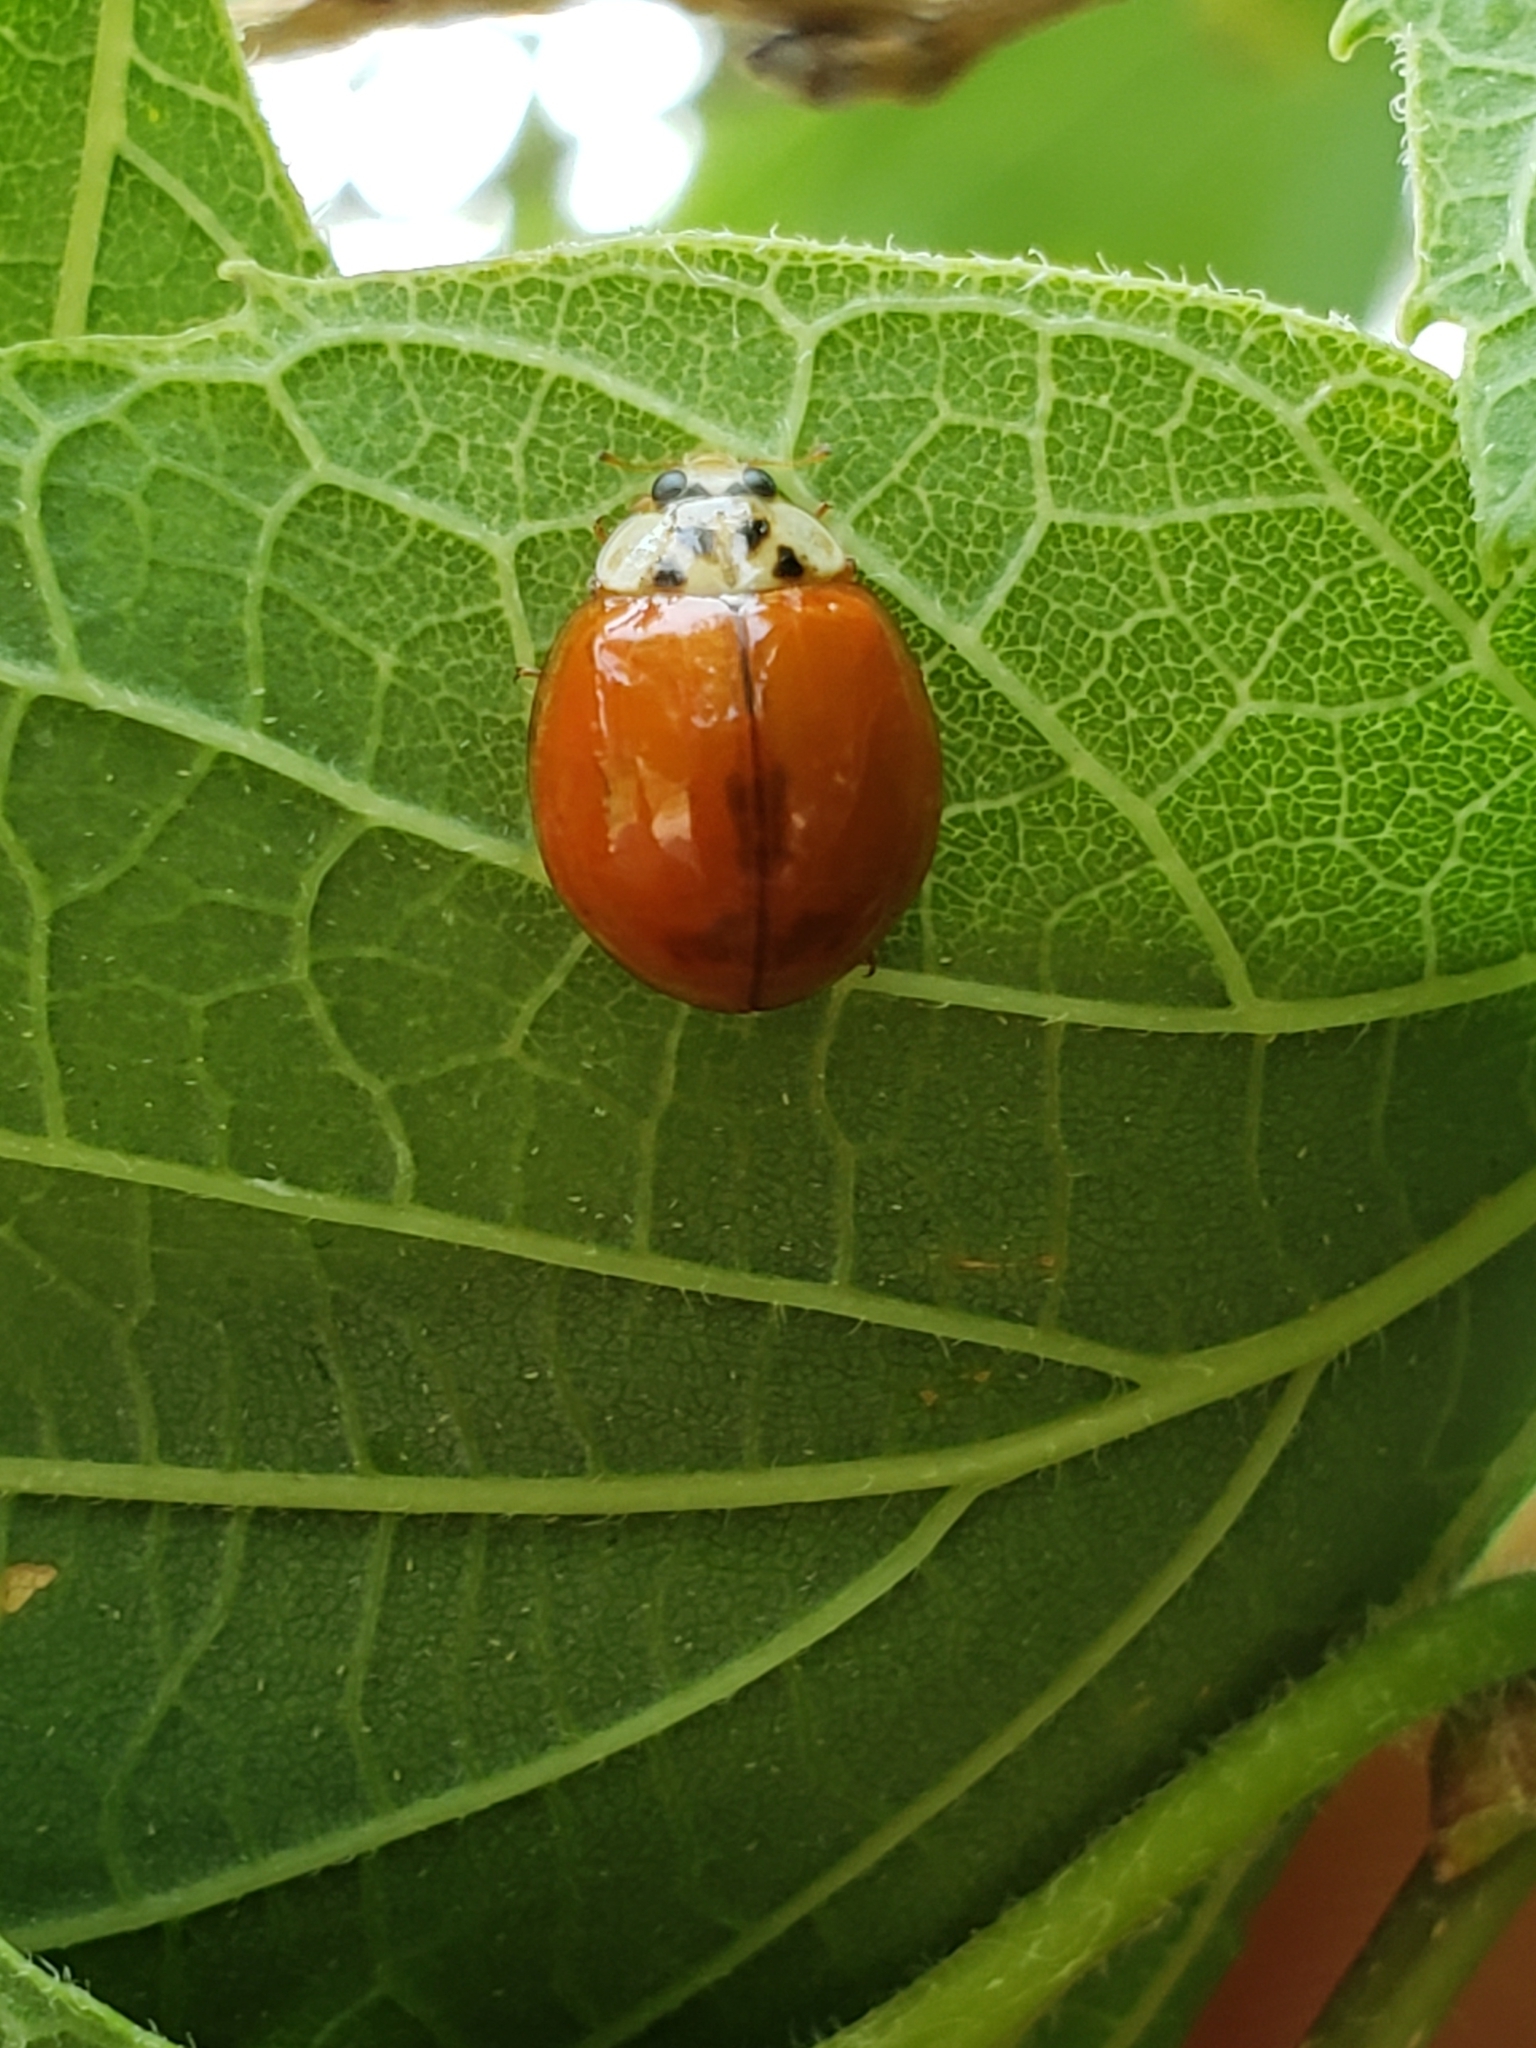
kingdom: Animalia
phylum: Arthropoda
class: Insecta
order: Coleoptera
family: Coccinellidae
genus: Harmonia
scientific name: Harmonia axyridis
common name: Harlequin ladybird
